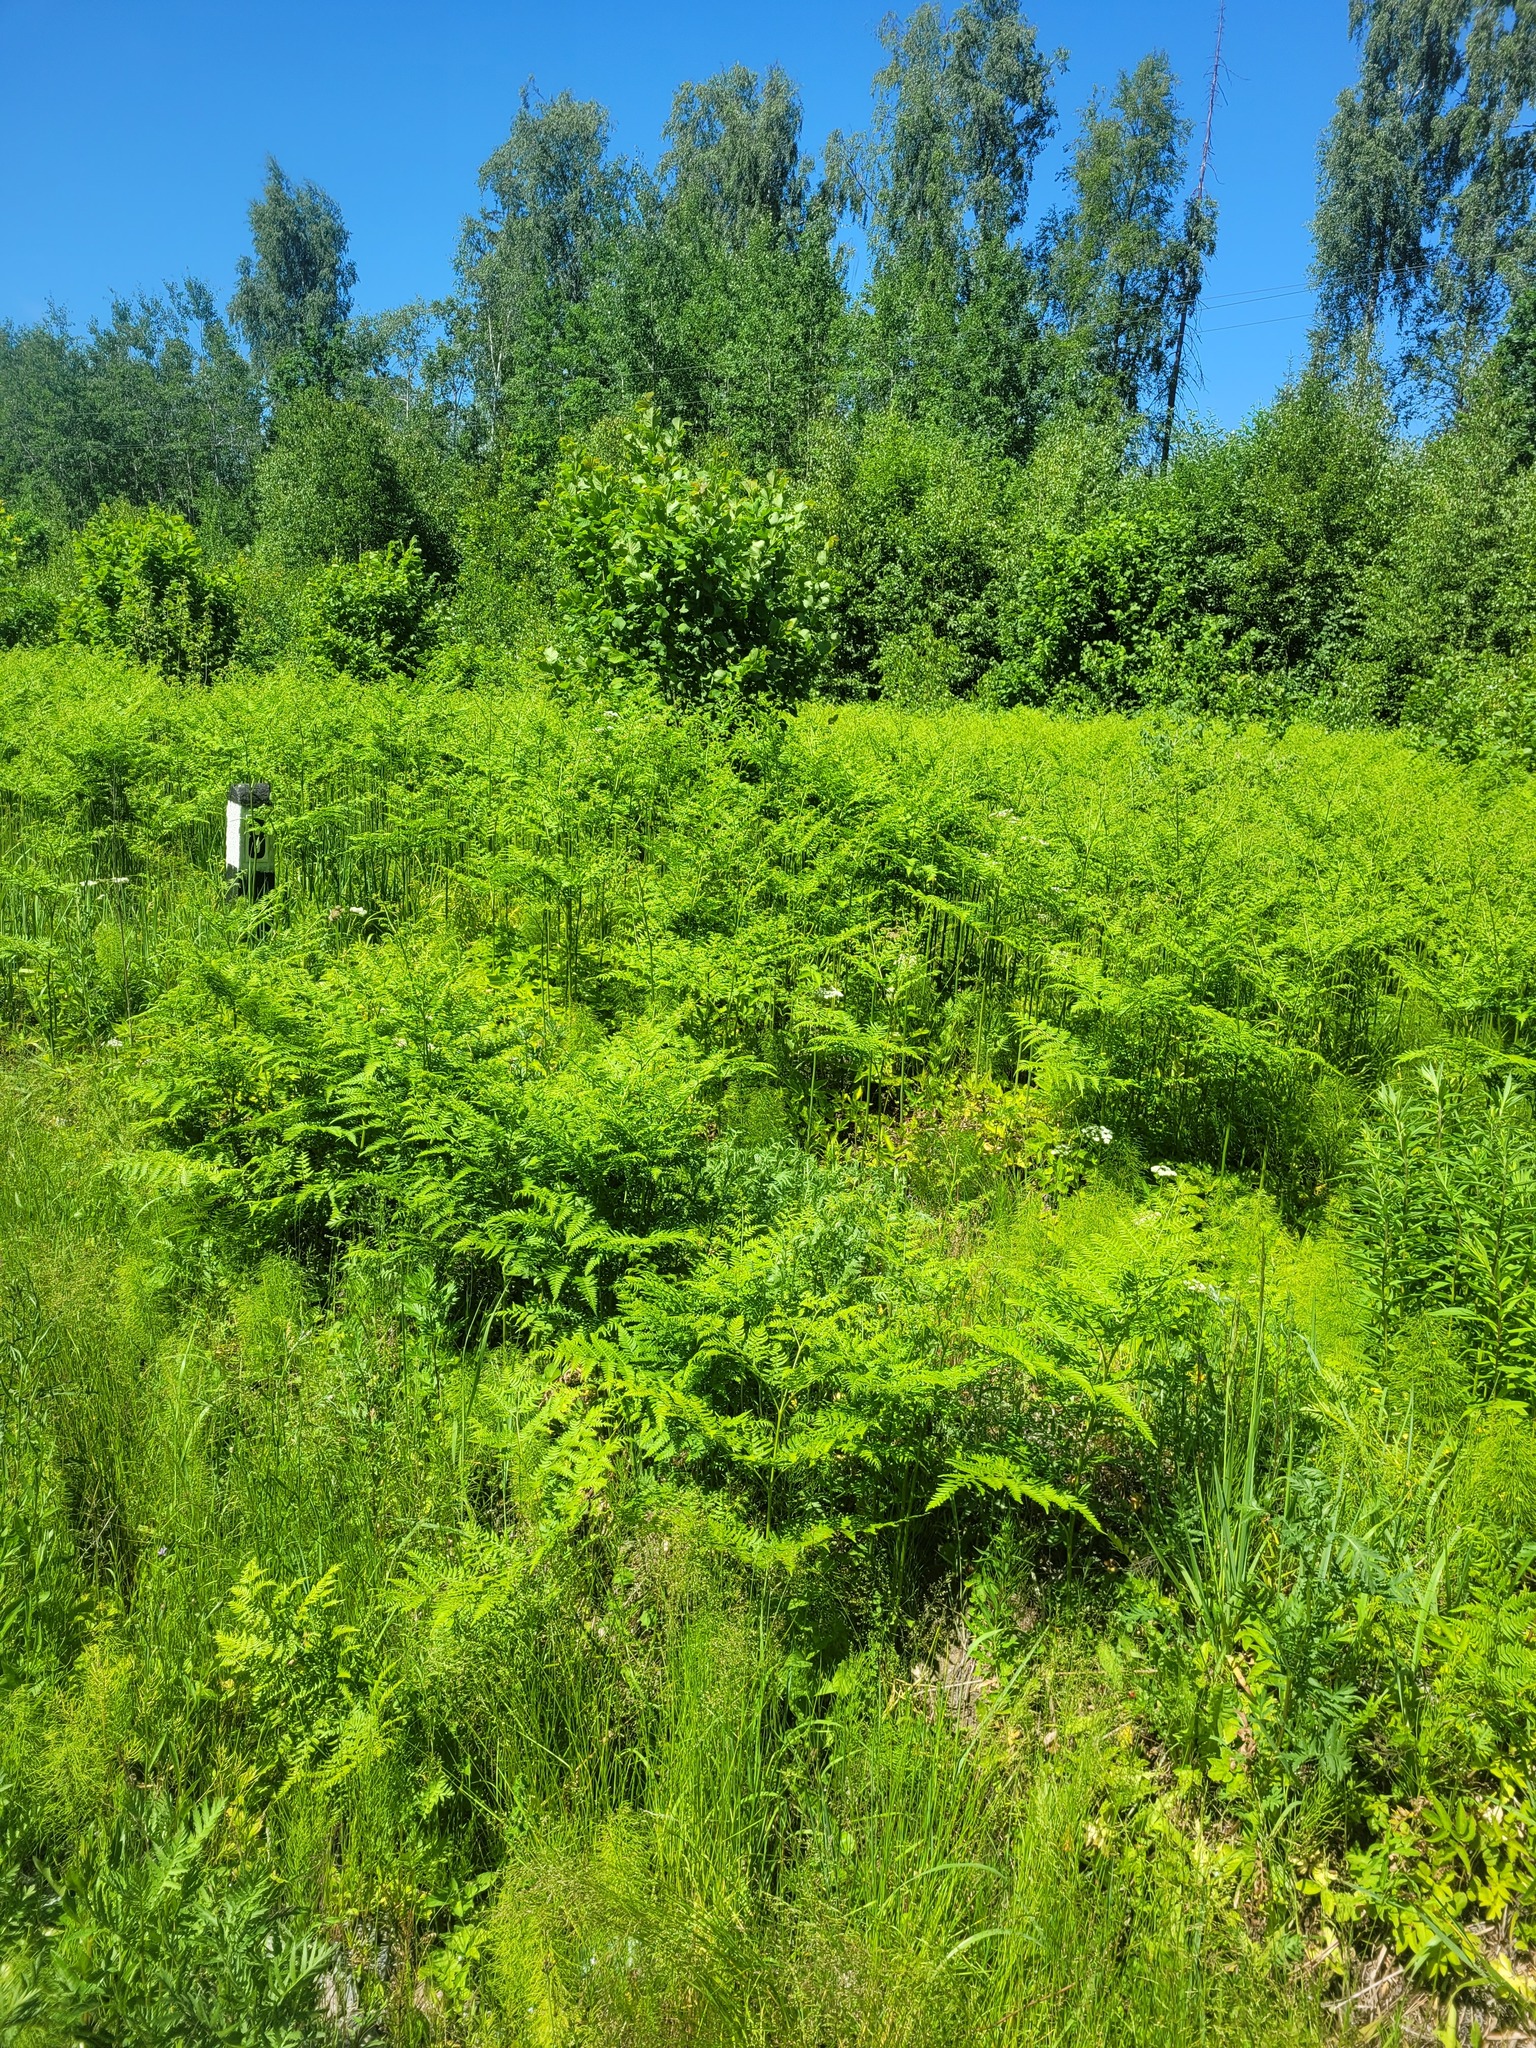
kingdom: Plantae
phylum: Tracheophyta
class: Polypodiopsida
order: Polypodiales
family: Dennstaedtiaceae
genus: Pteridium
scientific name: Pteridium aquilinum
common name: Bracken
